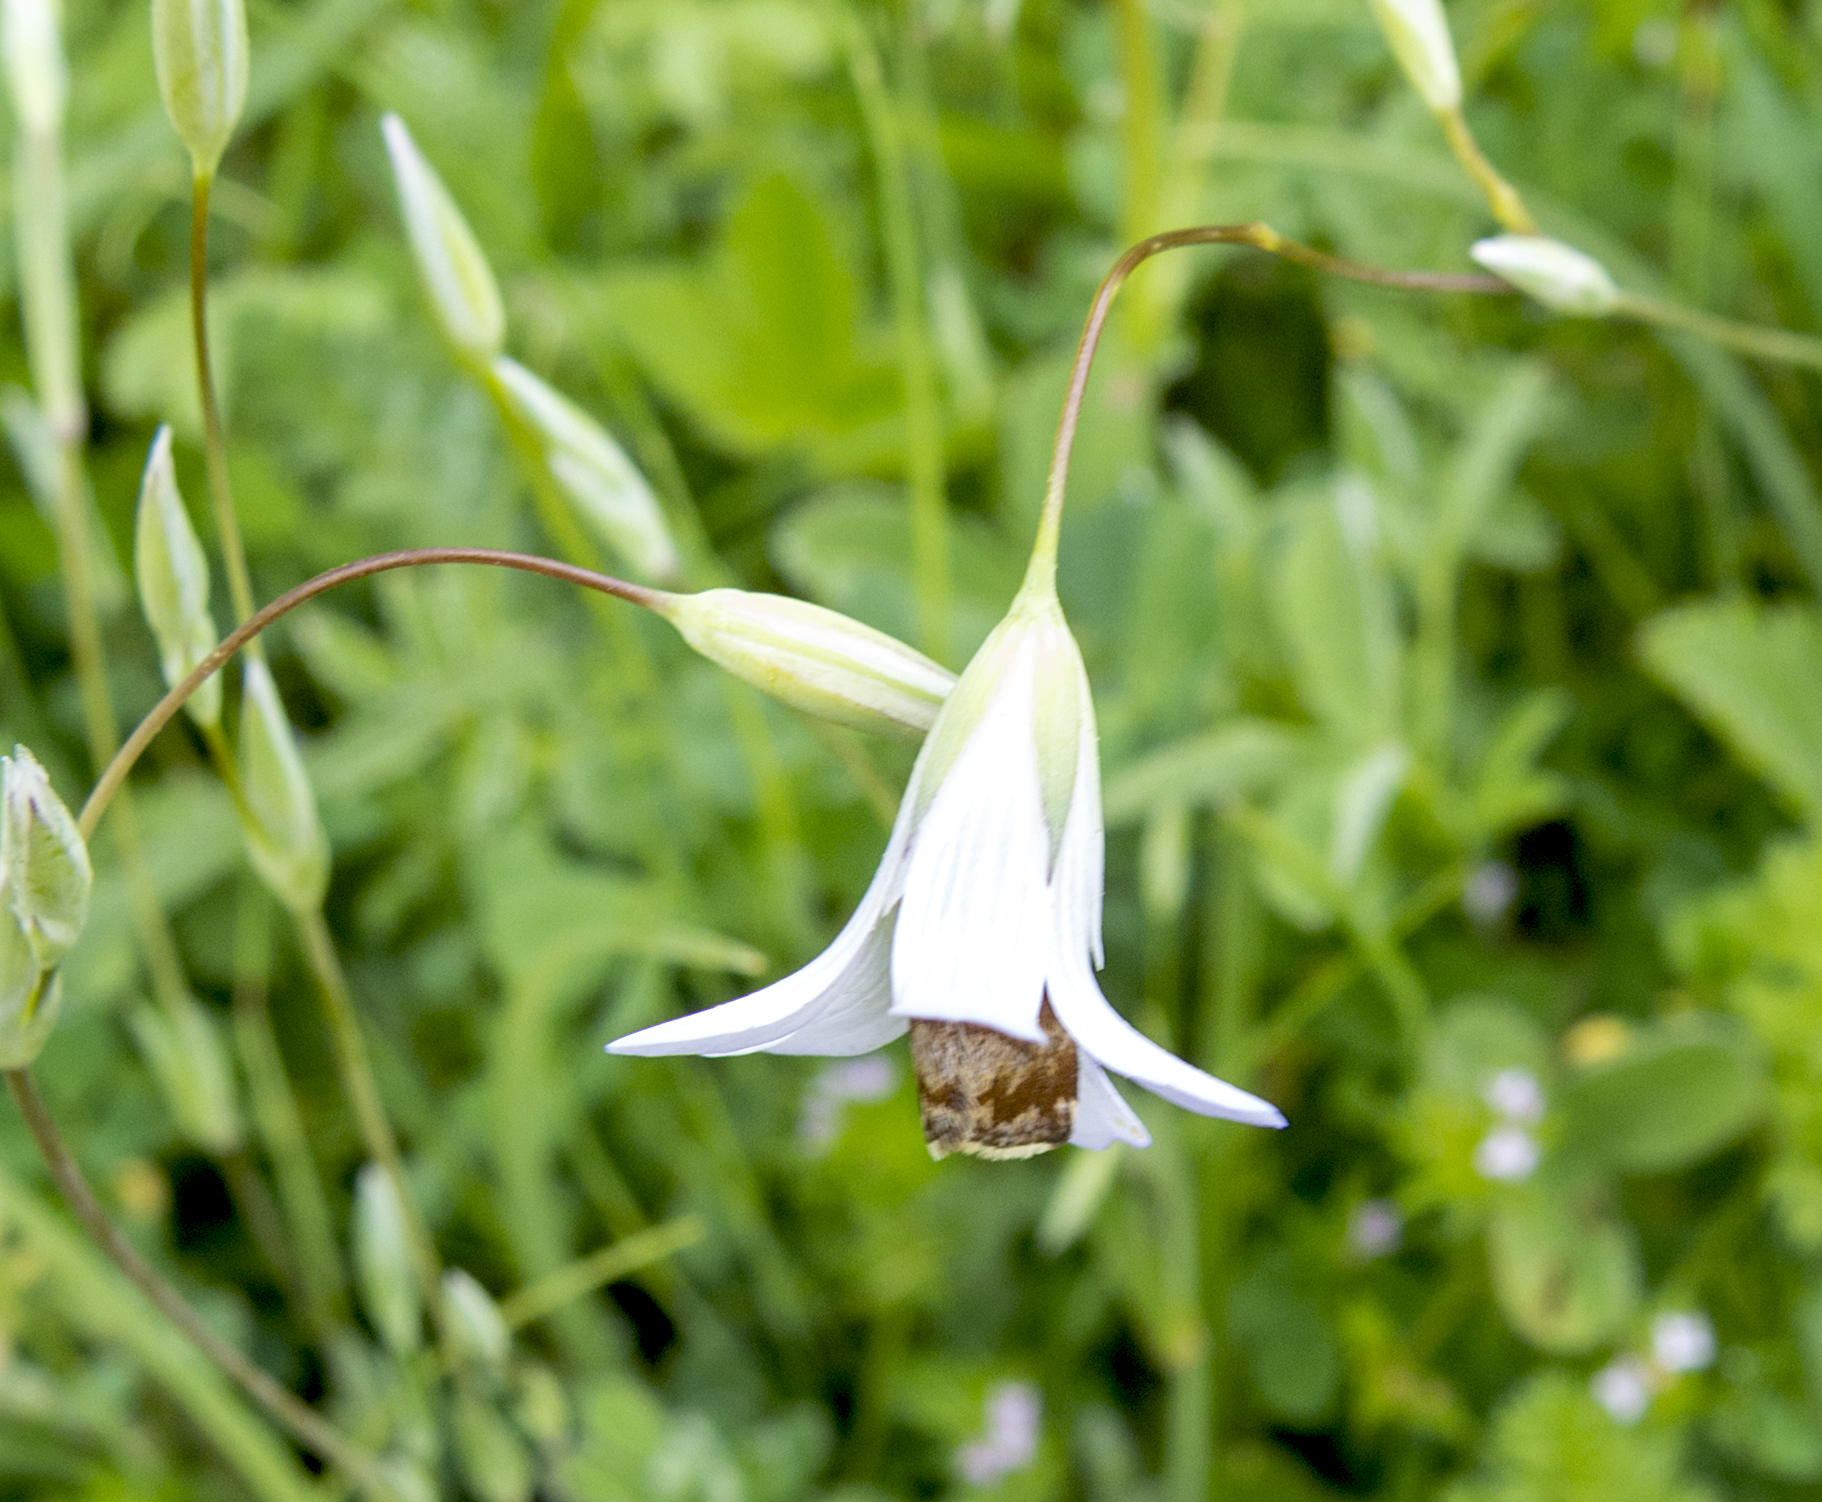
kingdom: Animalia
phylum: Arthropoda
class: Insecta
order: Lepidoptera
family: Noctuidae
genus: Panemeria
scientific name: Panemeria tenebrata
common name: Small yellow underwing
